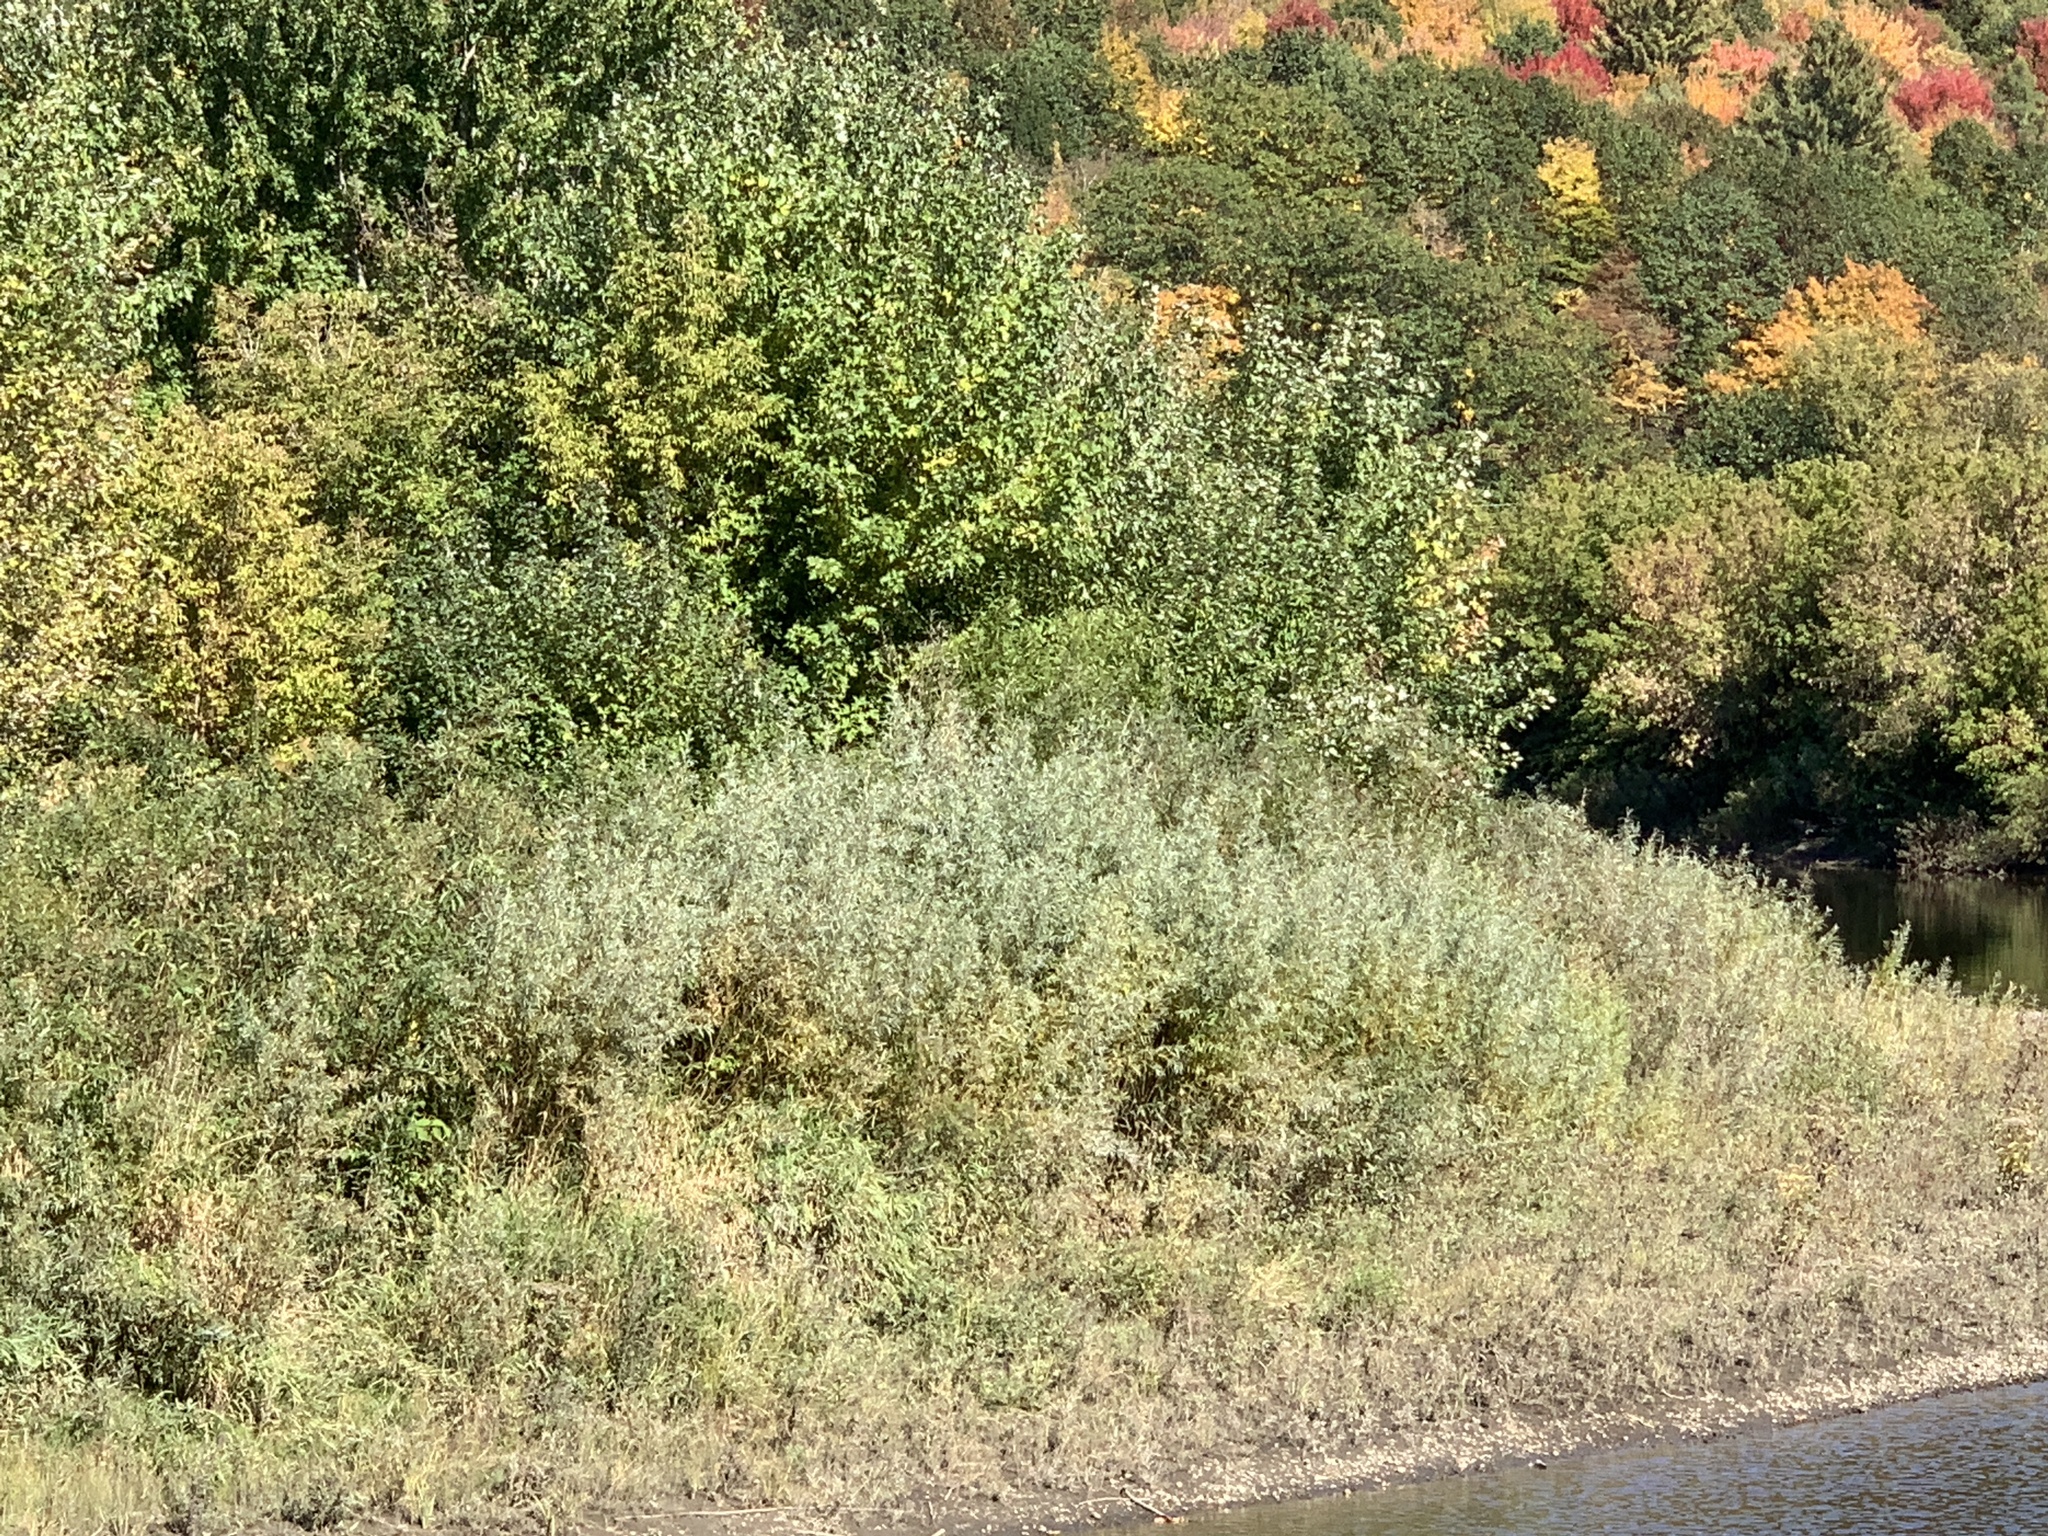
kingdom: Plantae
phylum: Tracheophyta
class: Magnoliopsida
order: Malpighiales
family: Salicaceae
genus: Salix
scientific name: Salix interior
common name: Sandbar willow
